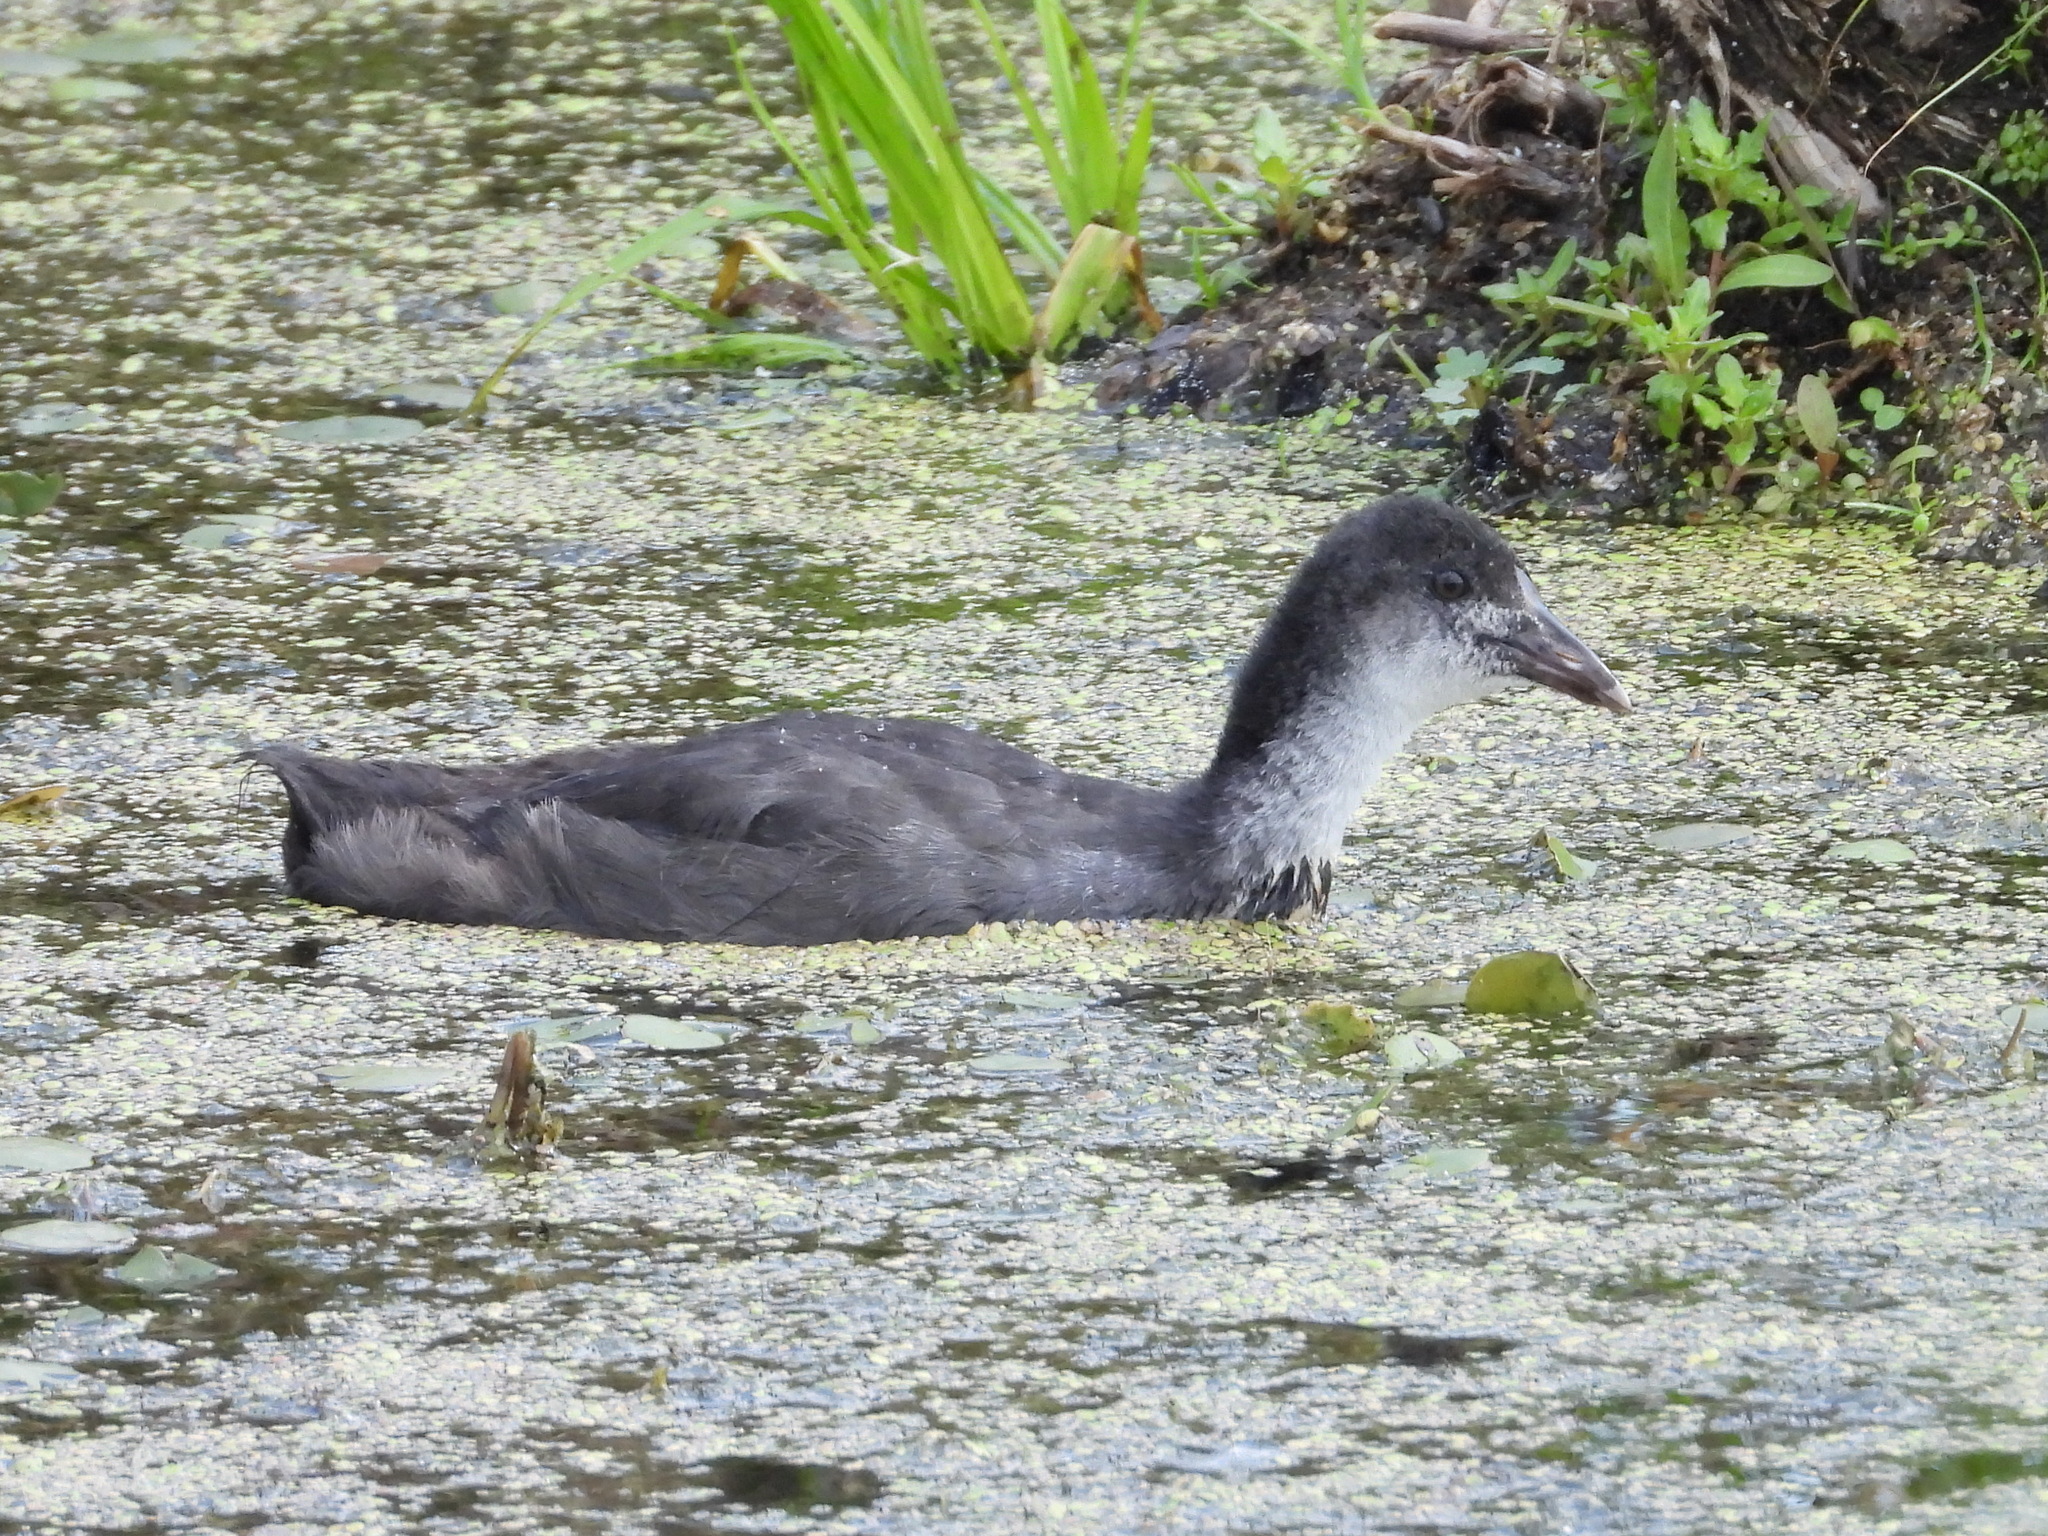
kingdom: Animalia
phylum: Chordata
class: Aves
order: Gruiformes
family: Rallidae
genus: Fulica
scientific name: Fulica atra
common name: Eurasian coot
